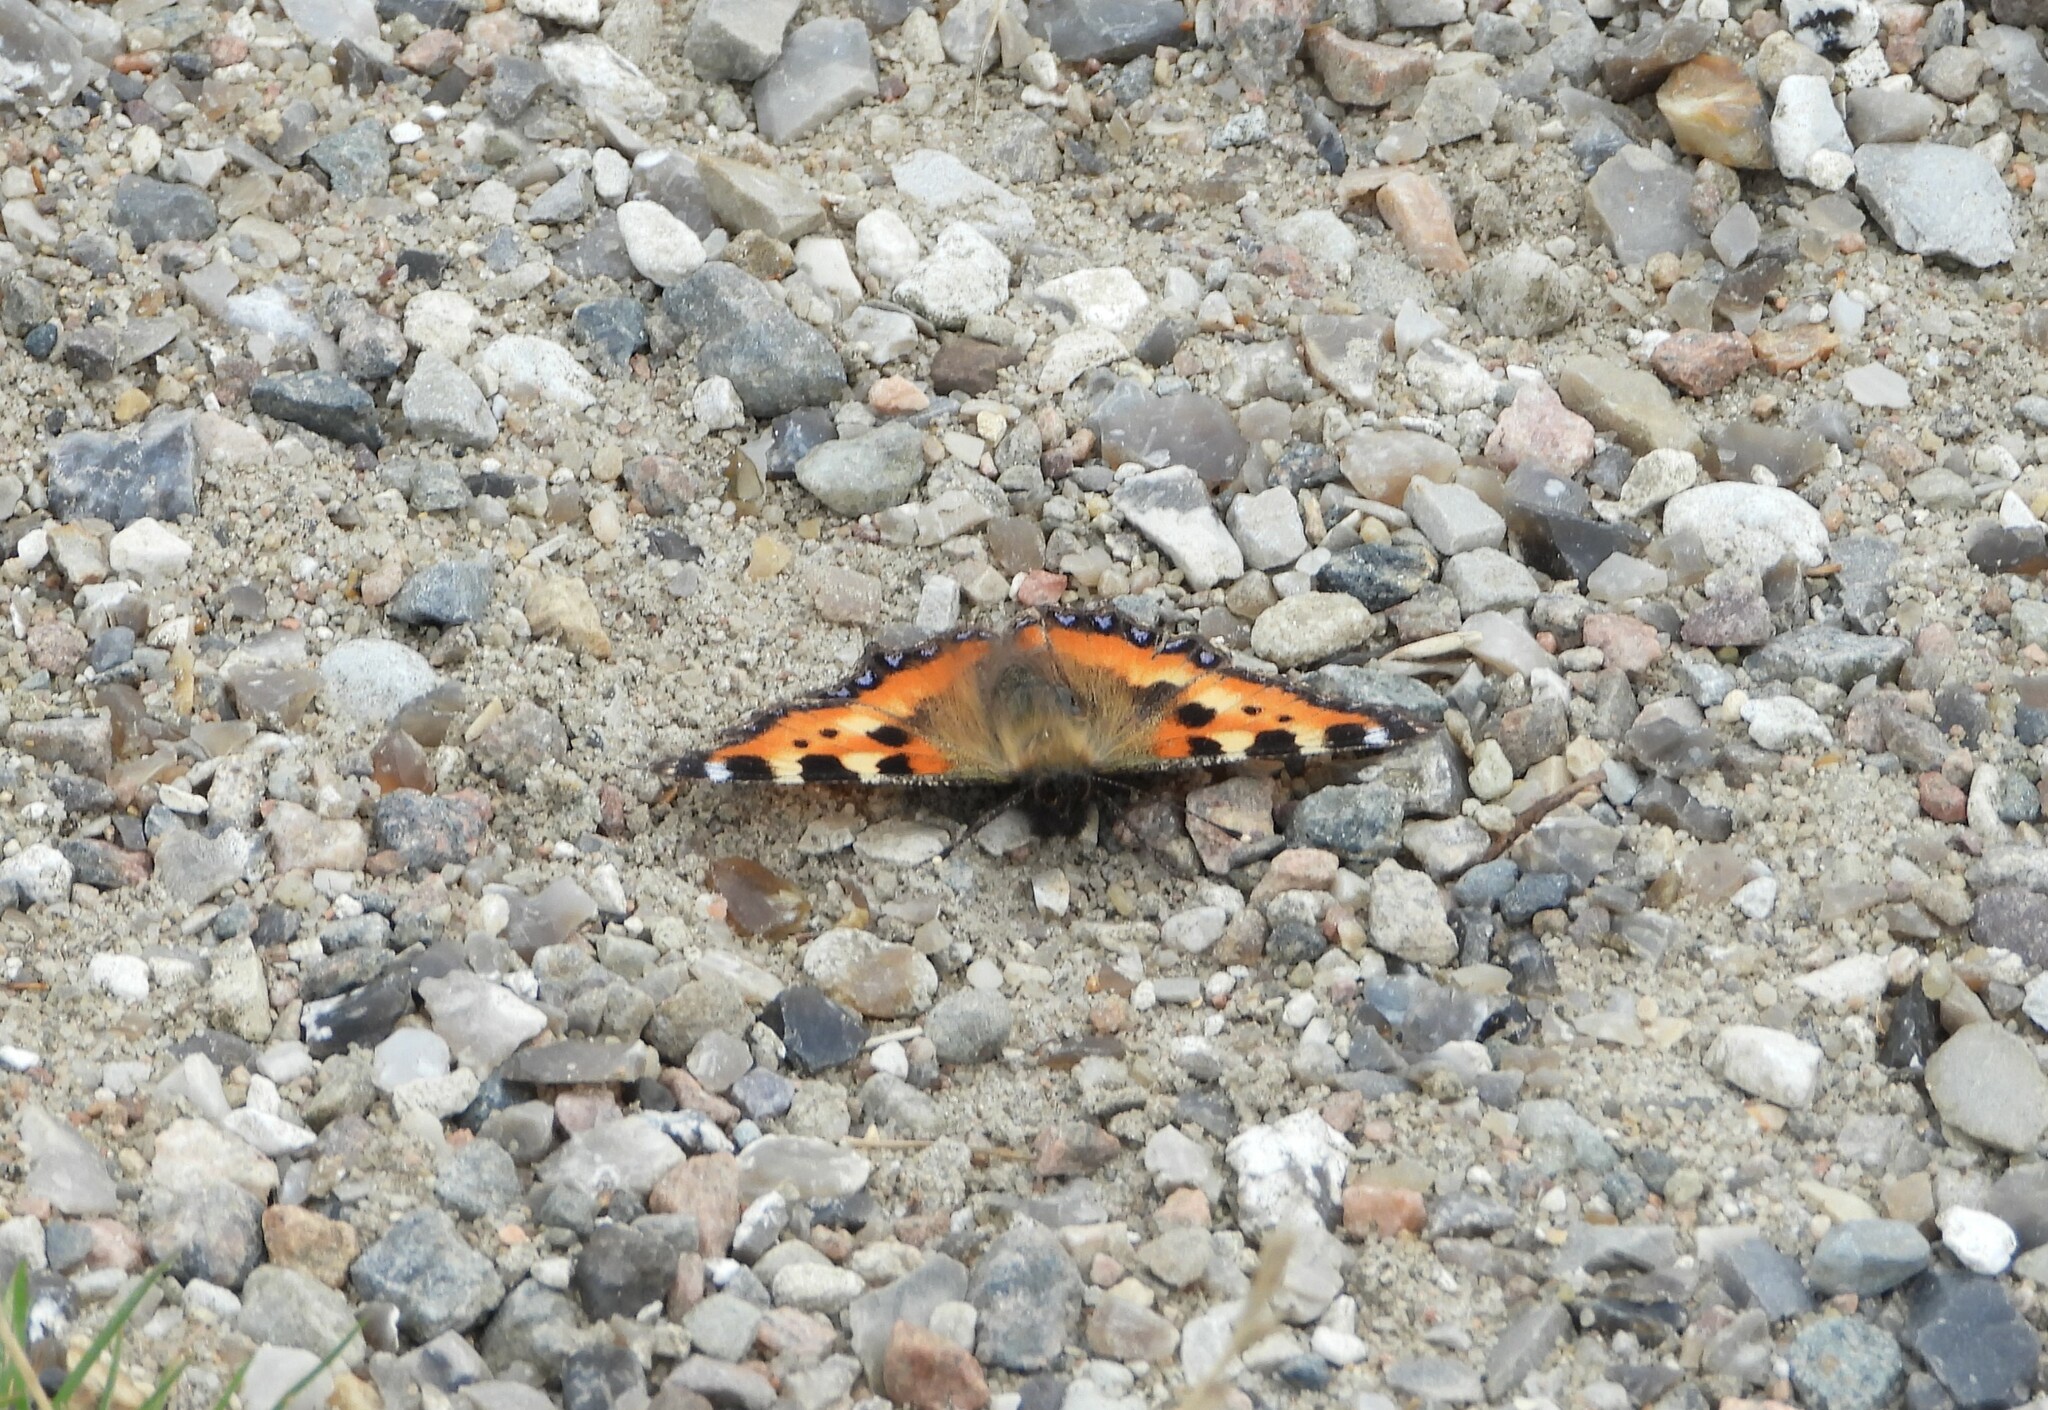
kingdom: Animalia
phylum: Arthropoda
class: Insecta
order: Lepidoptera
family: Nymphalidae
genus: Aglais
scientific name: Aglais urticae
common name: Small tortoiseshell
